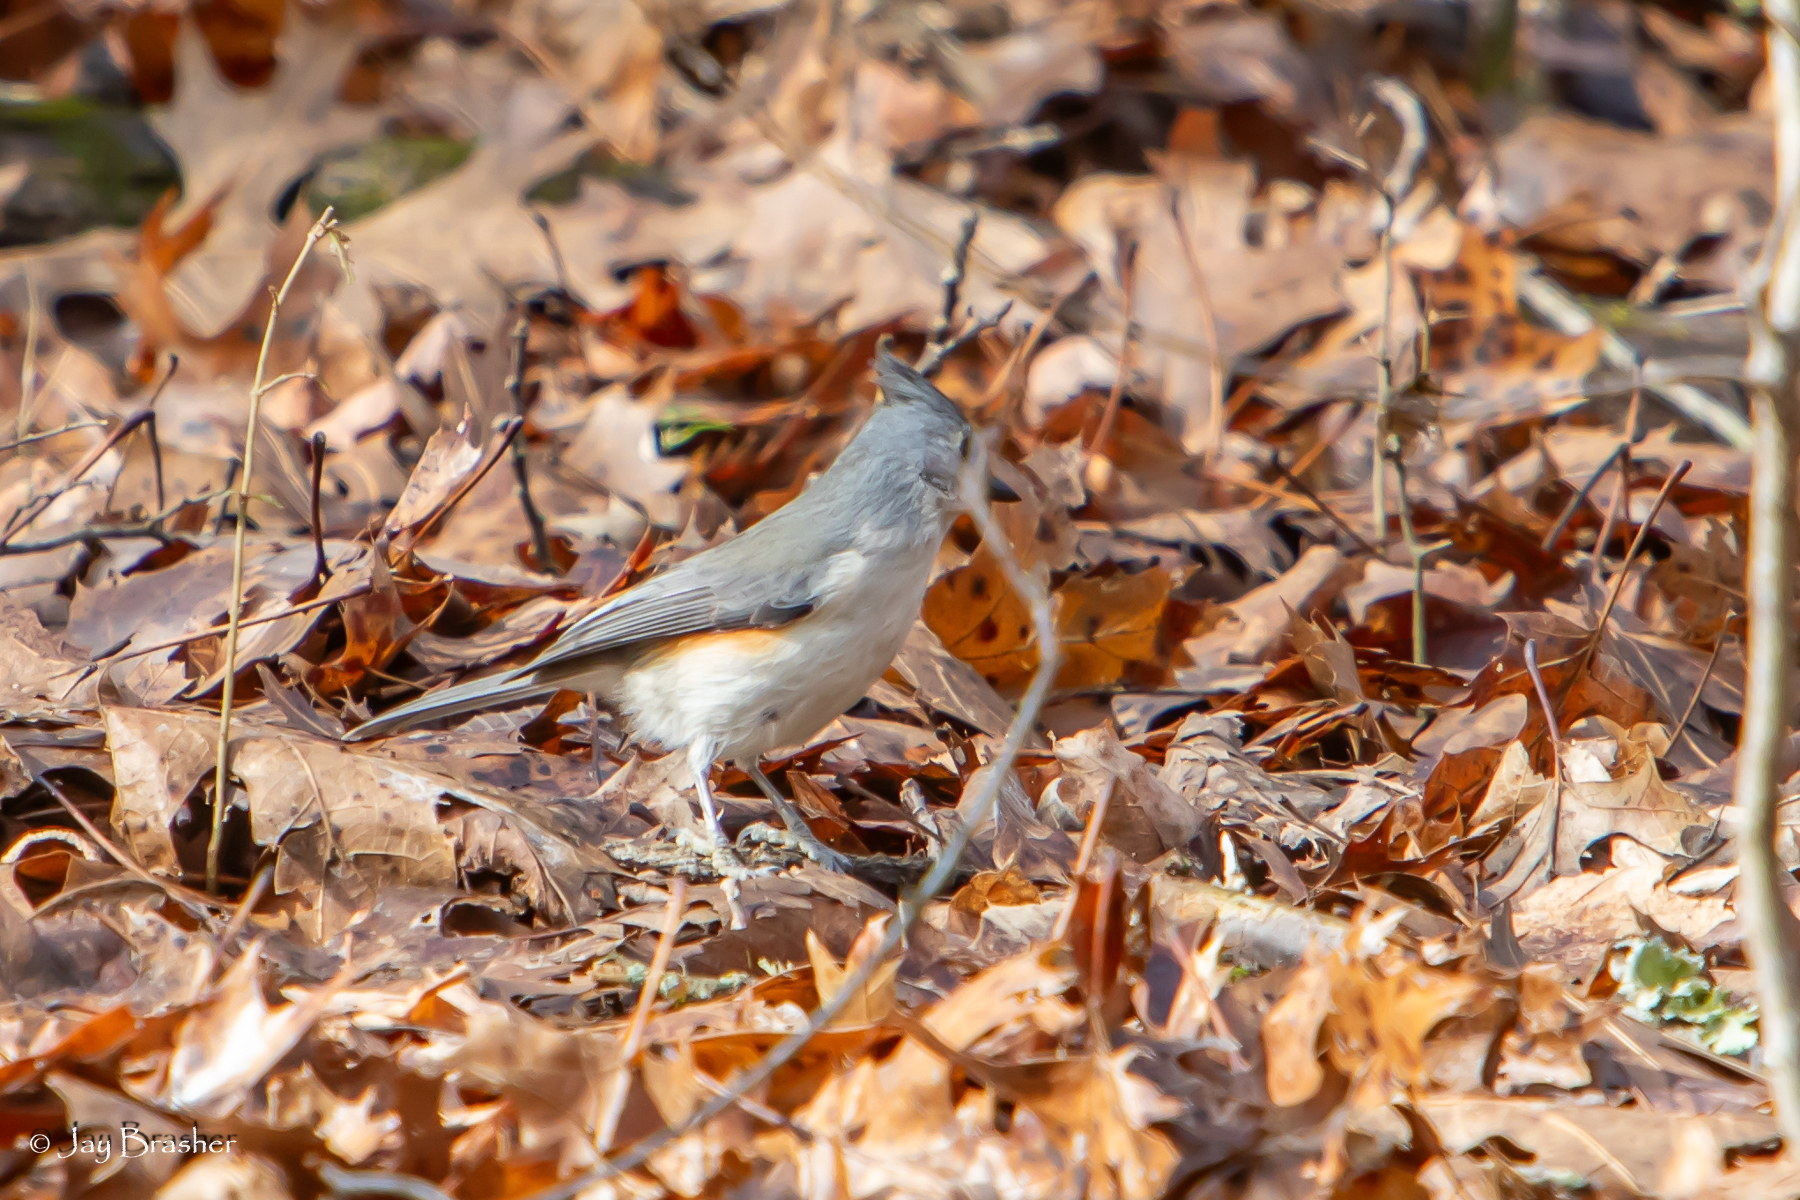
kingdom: Animalia
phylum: Chordata
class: Aves
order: Passeriformes
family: Paridae
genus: Baeolophus
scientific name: Baeolophus bicolor
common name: Tufted titmouse
